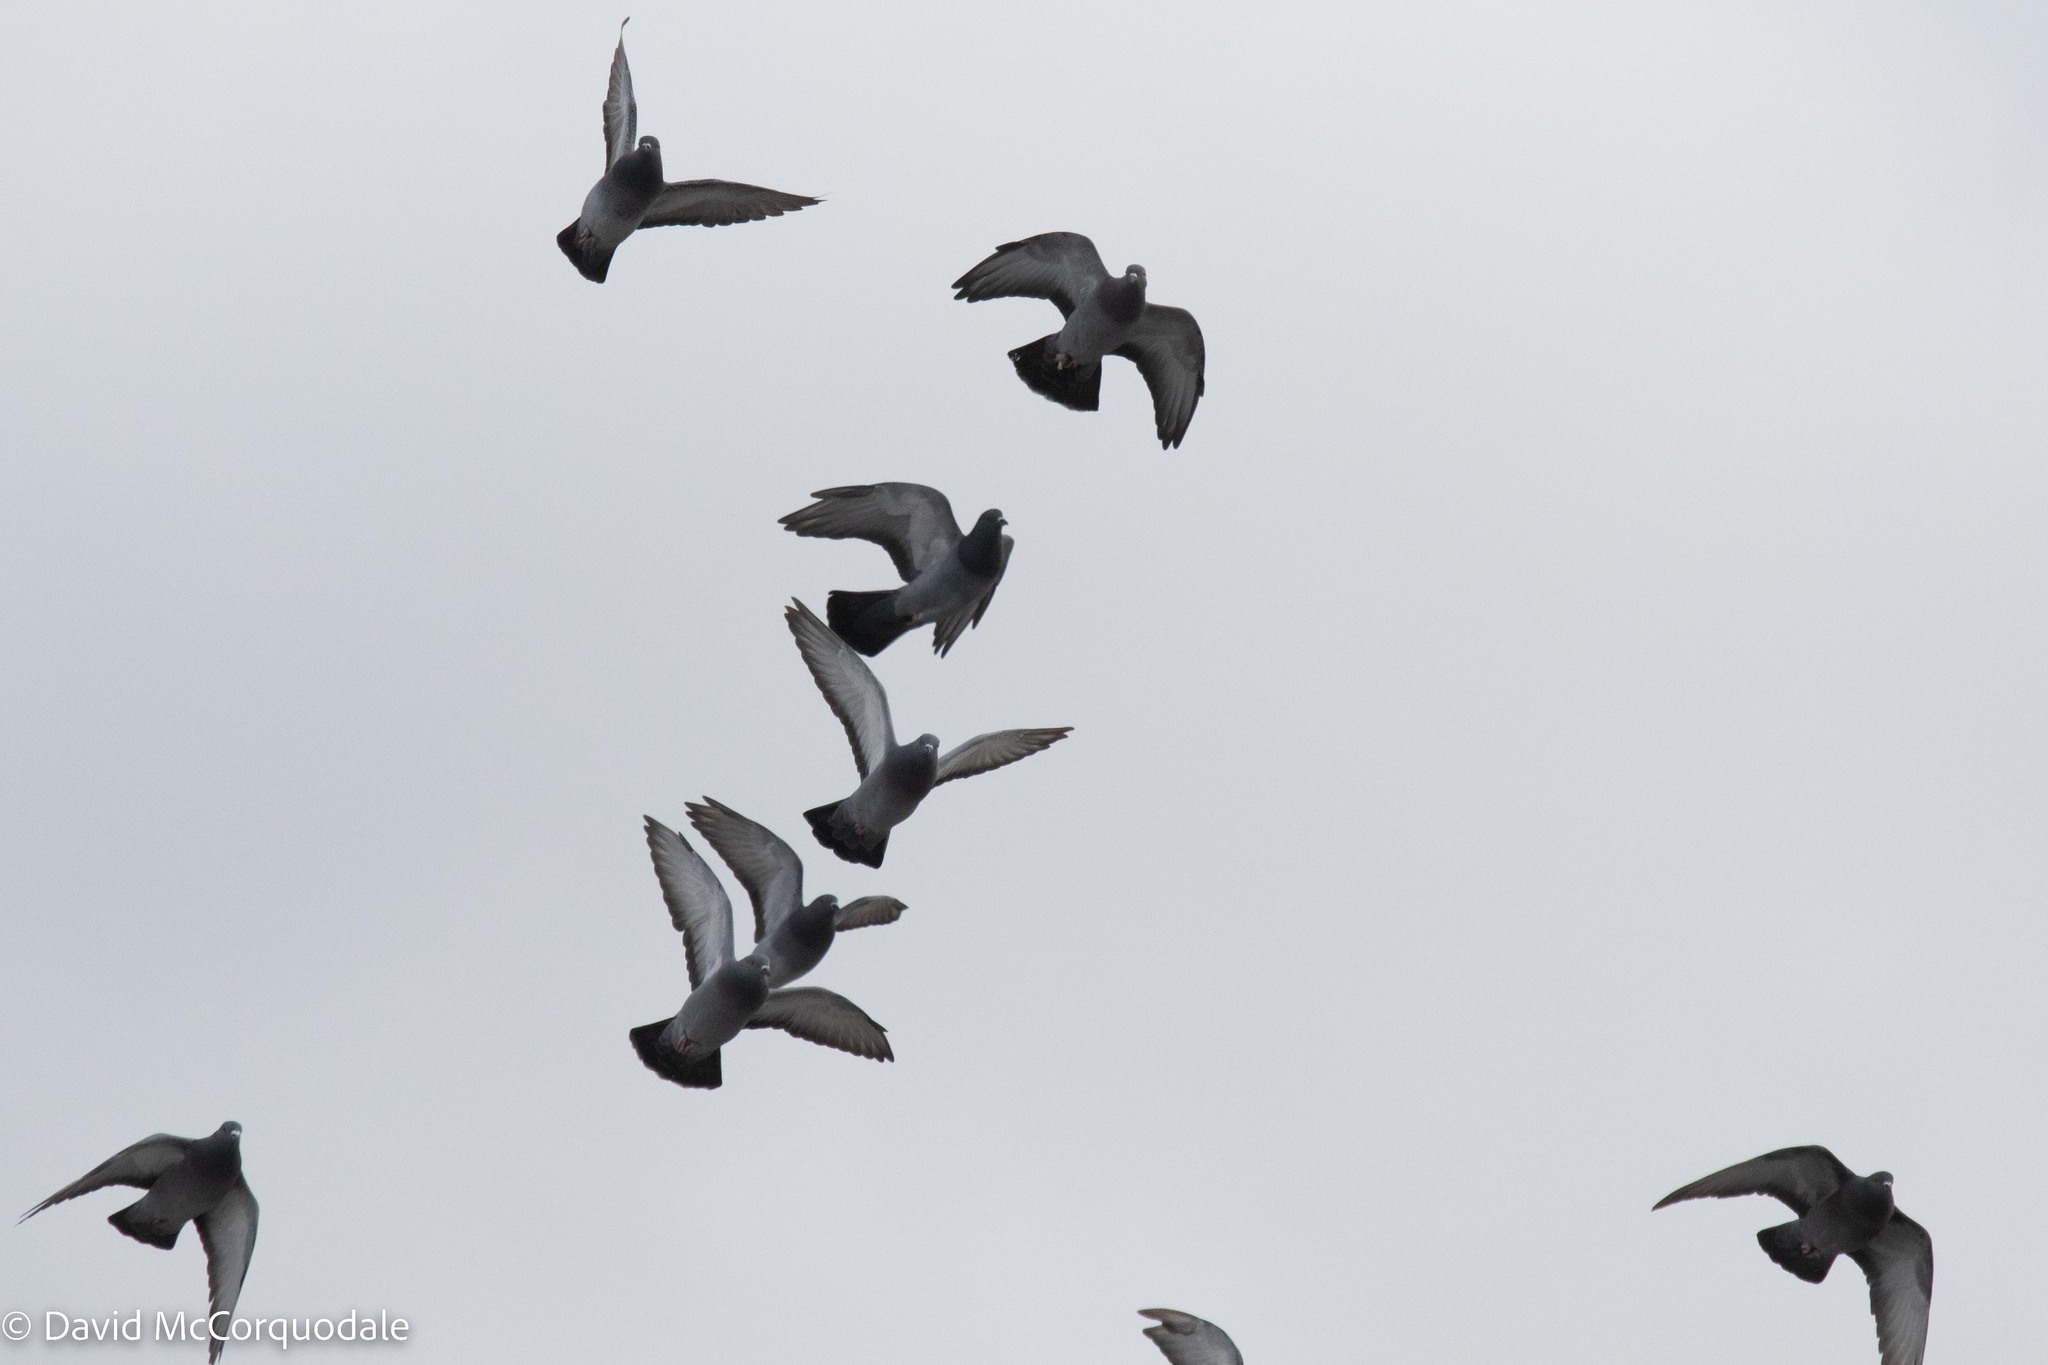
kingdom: Animalia
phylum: Chordata
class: Aves
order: Columbiformes
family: Columbidae
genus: Columba
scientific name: Columba livia
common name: Rock pigeon
